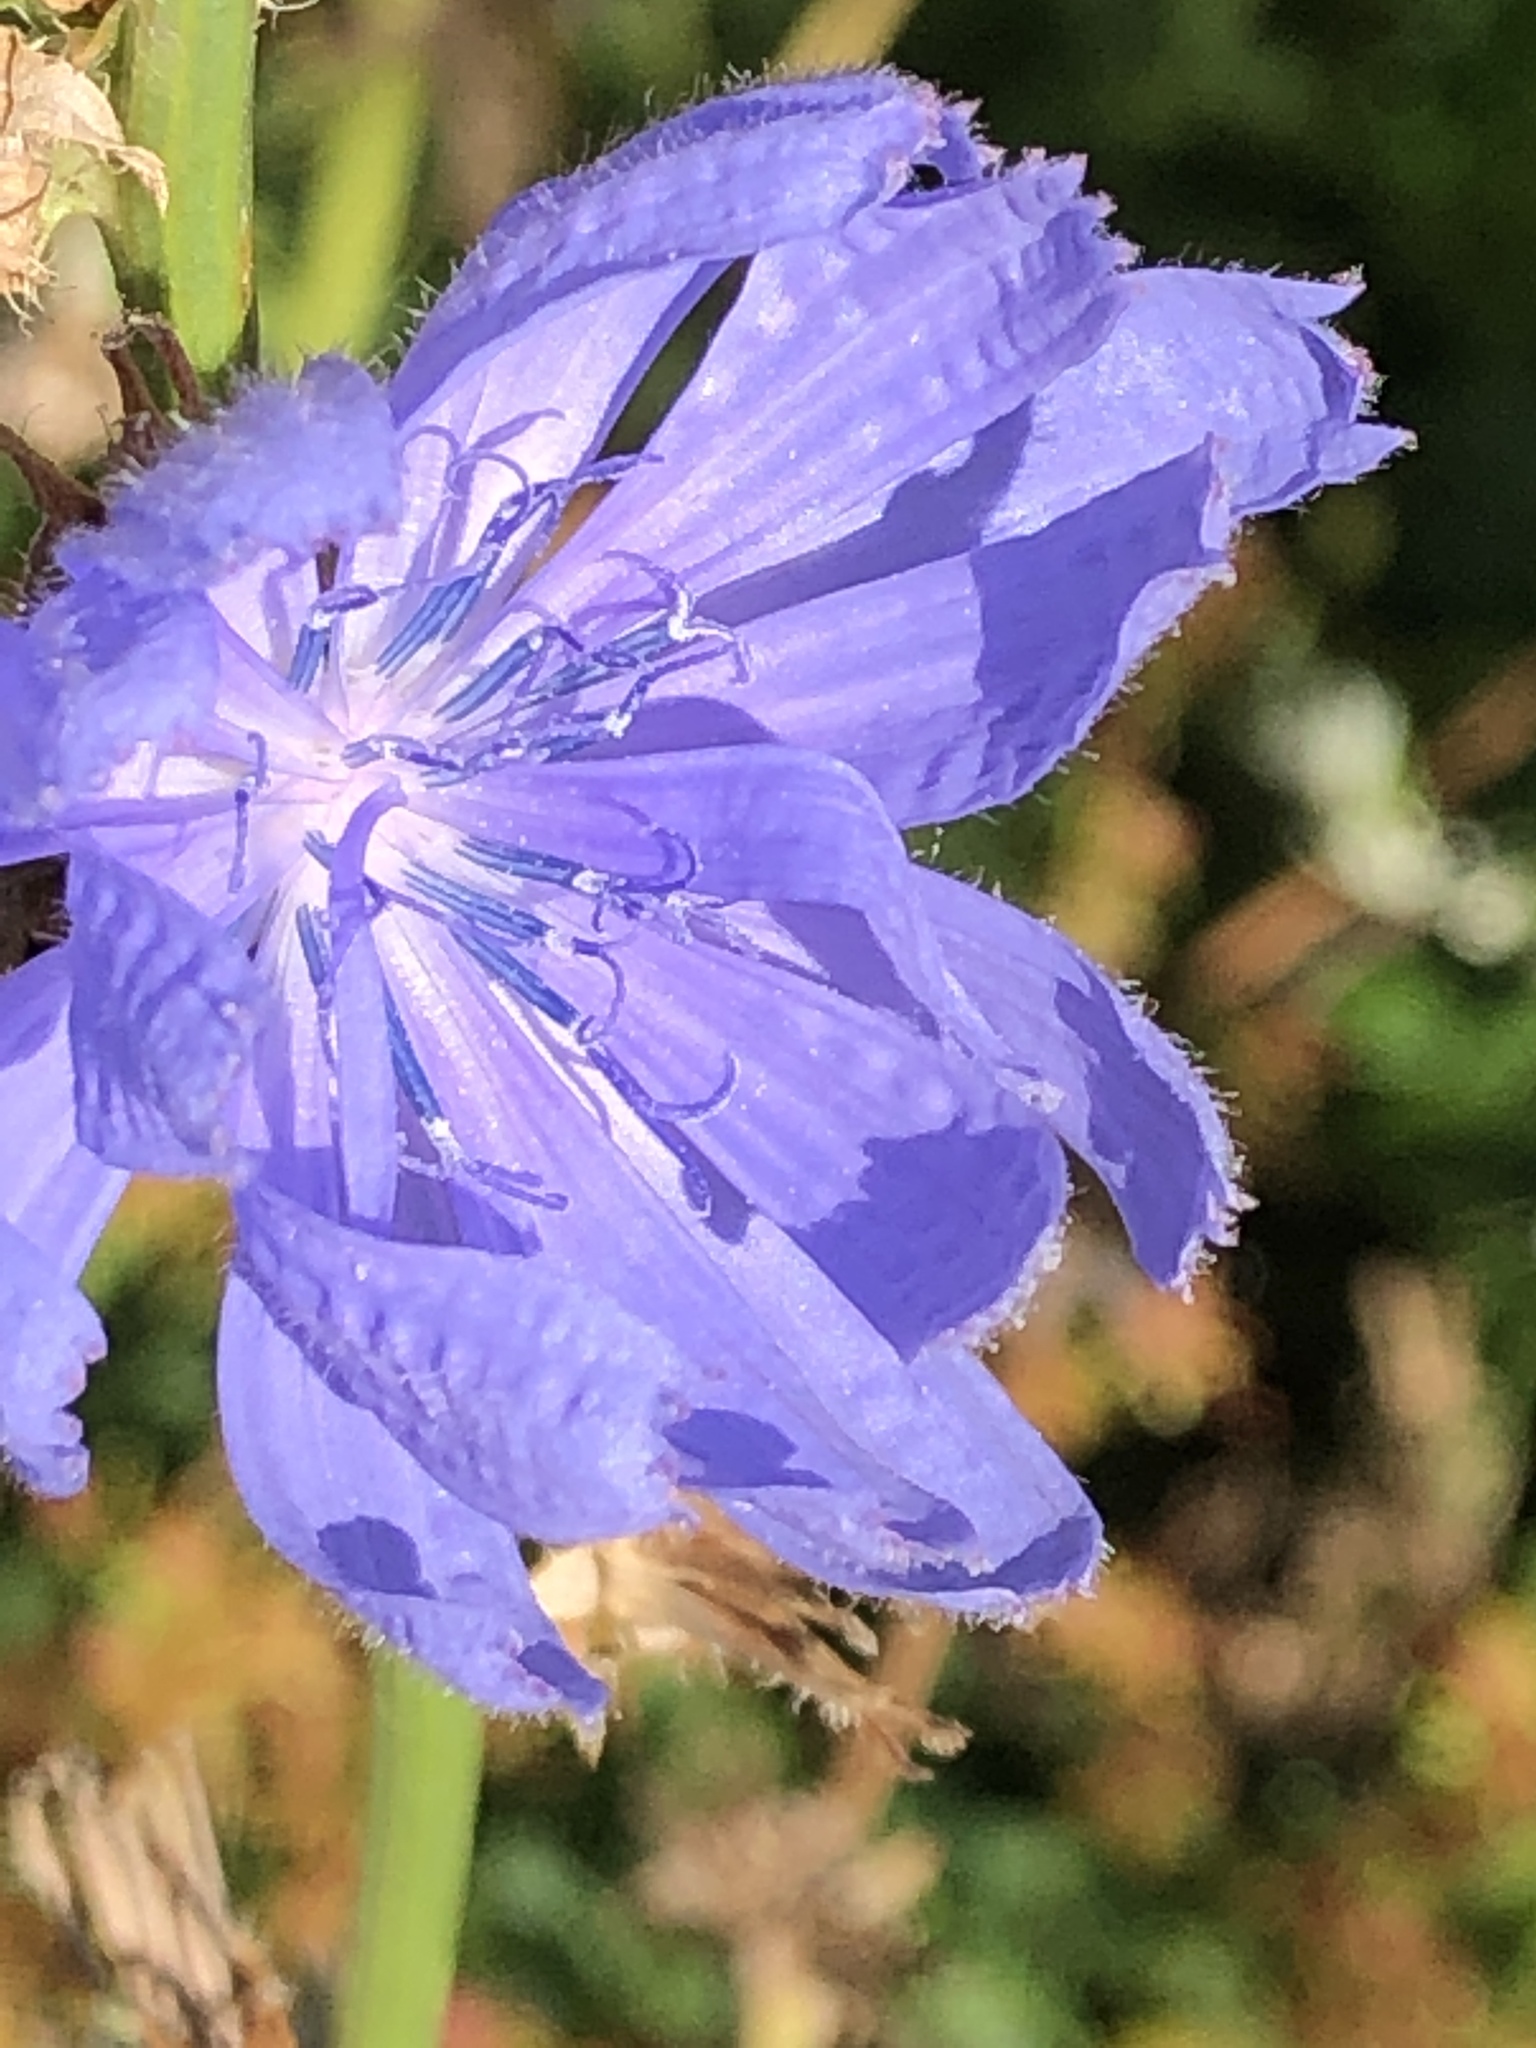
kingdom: Plantae
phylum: Tracheophyta
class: Magnoliopsida
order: Asterales
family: Asteraceae
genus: Cichorium
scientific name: Cichorium intybus
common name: Chicory
